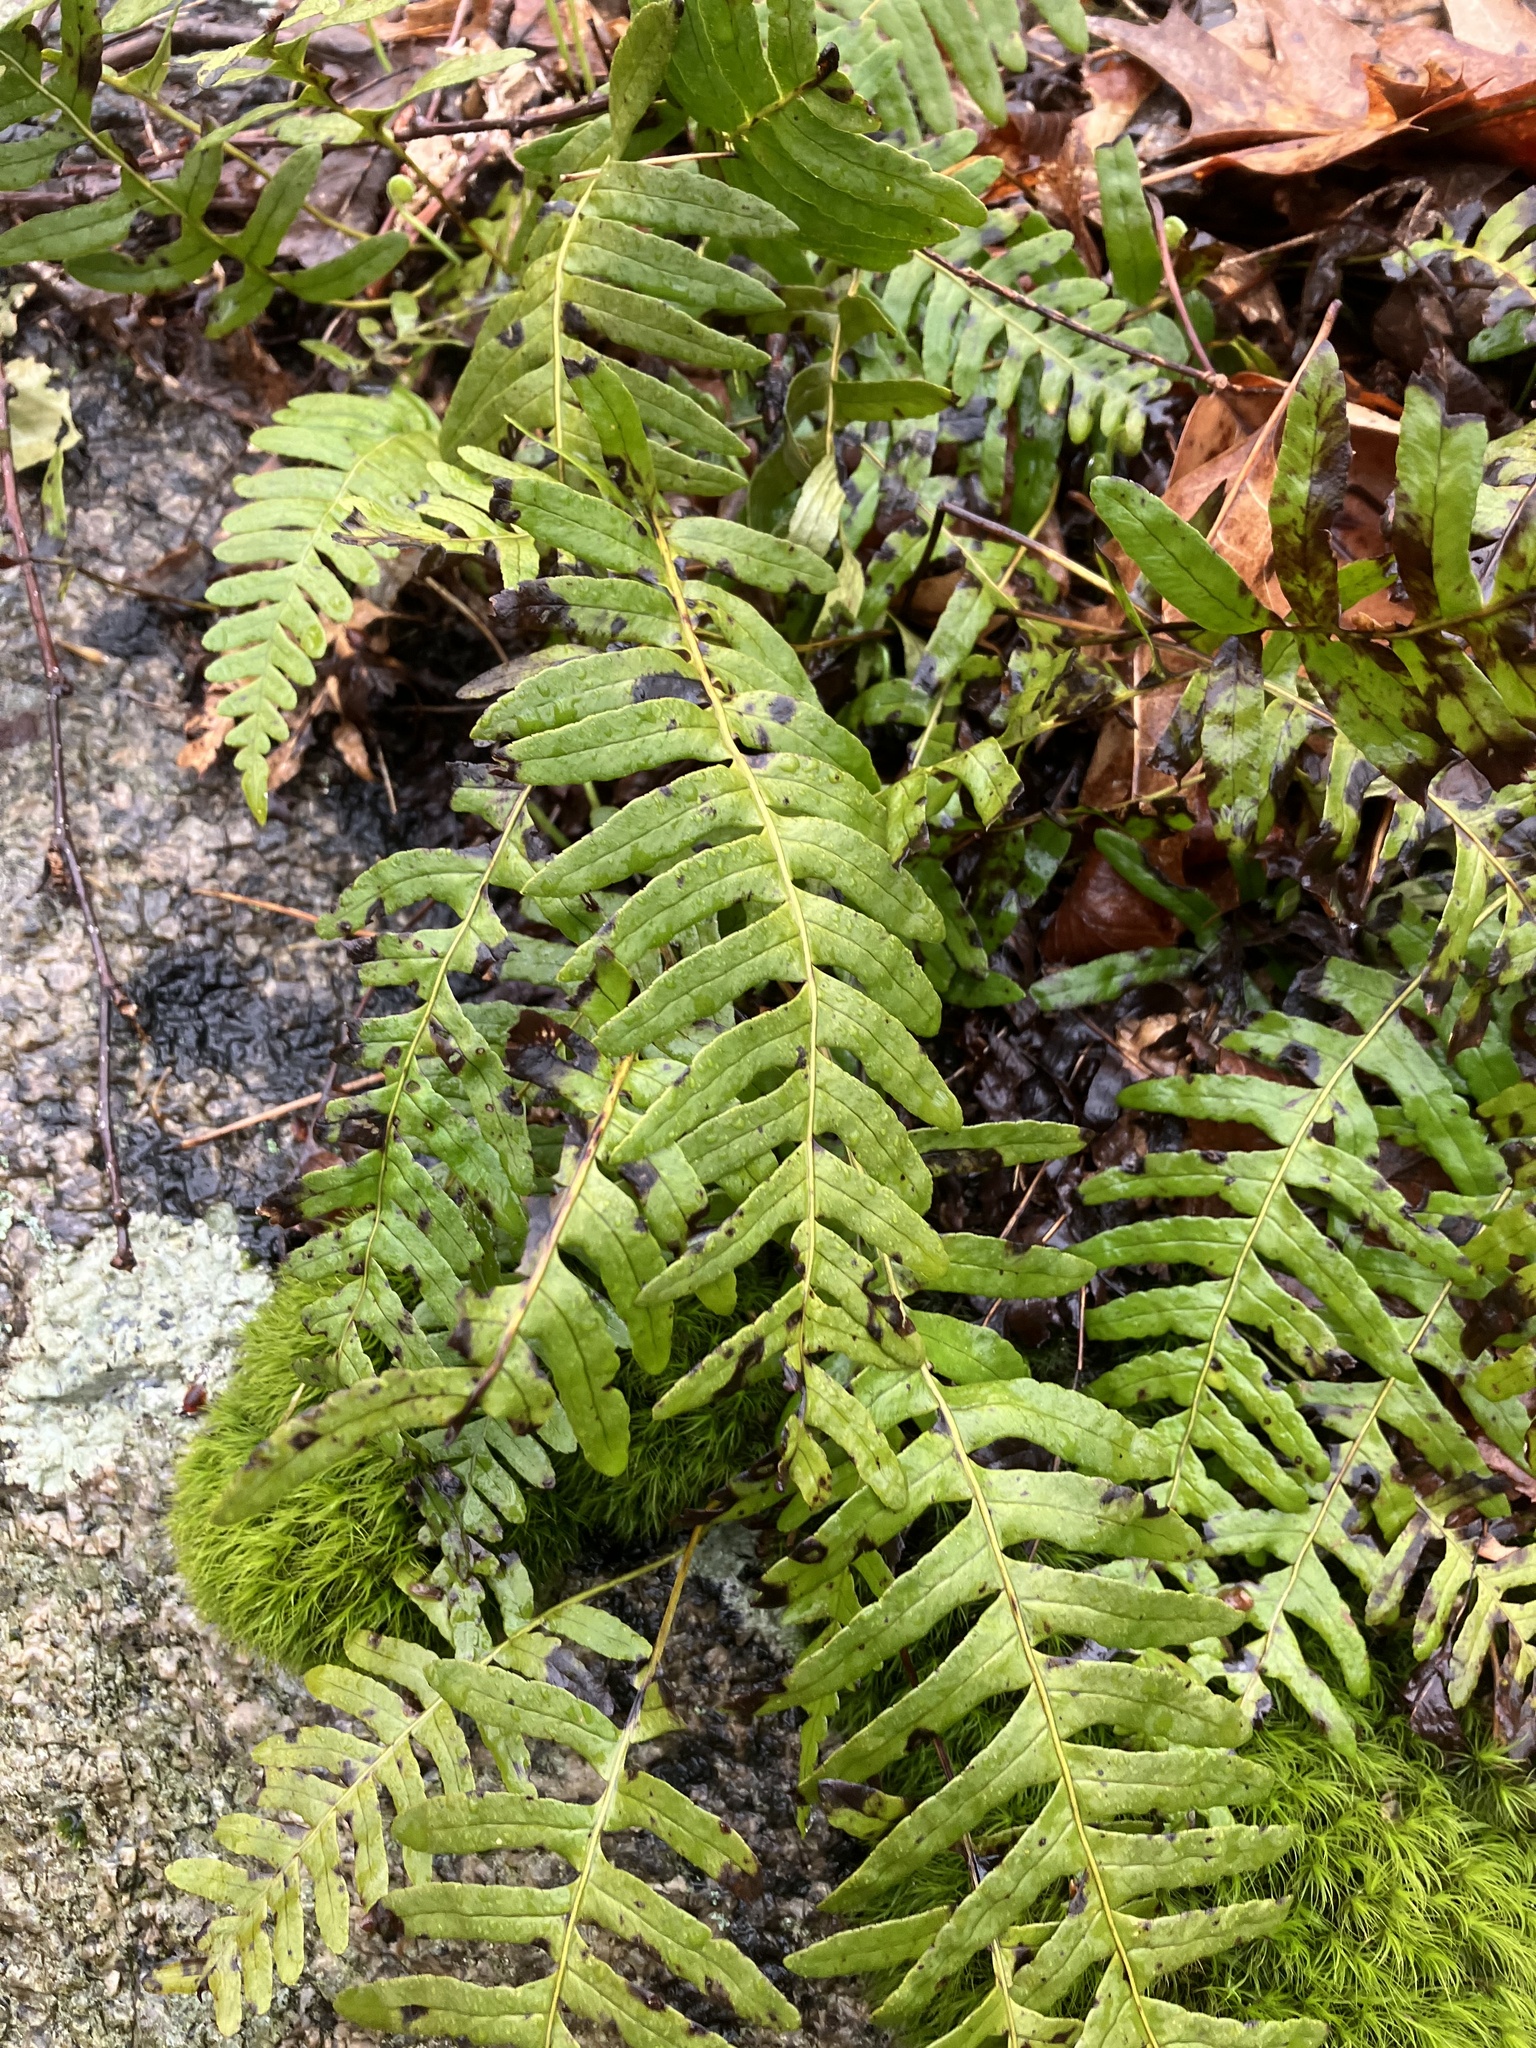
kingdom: Plantae
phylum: Tracheophyta
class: Polypodiopsida
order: Polypodiales
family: Polypodiaceae
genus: Polypodium
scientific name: Polypodium virginianum
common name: American wall fern
